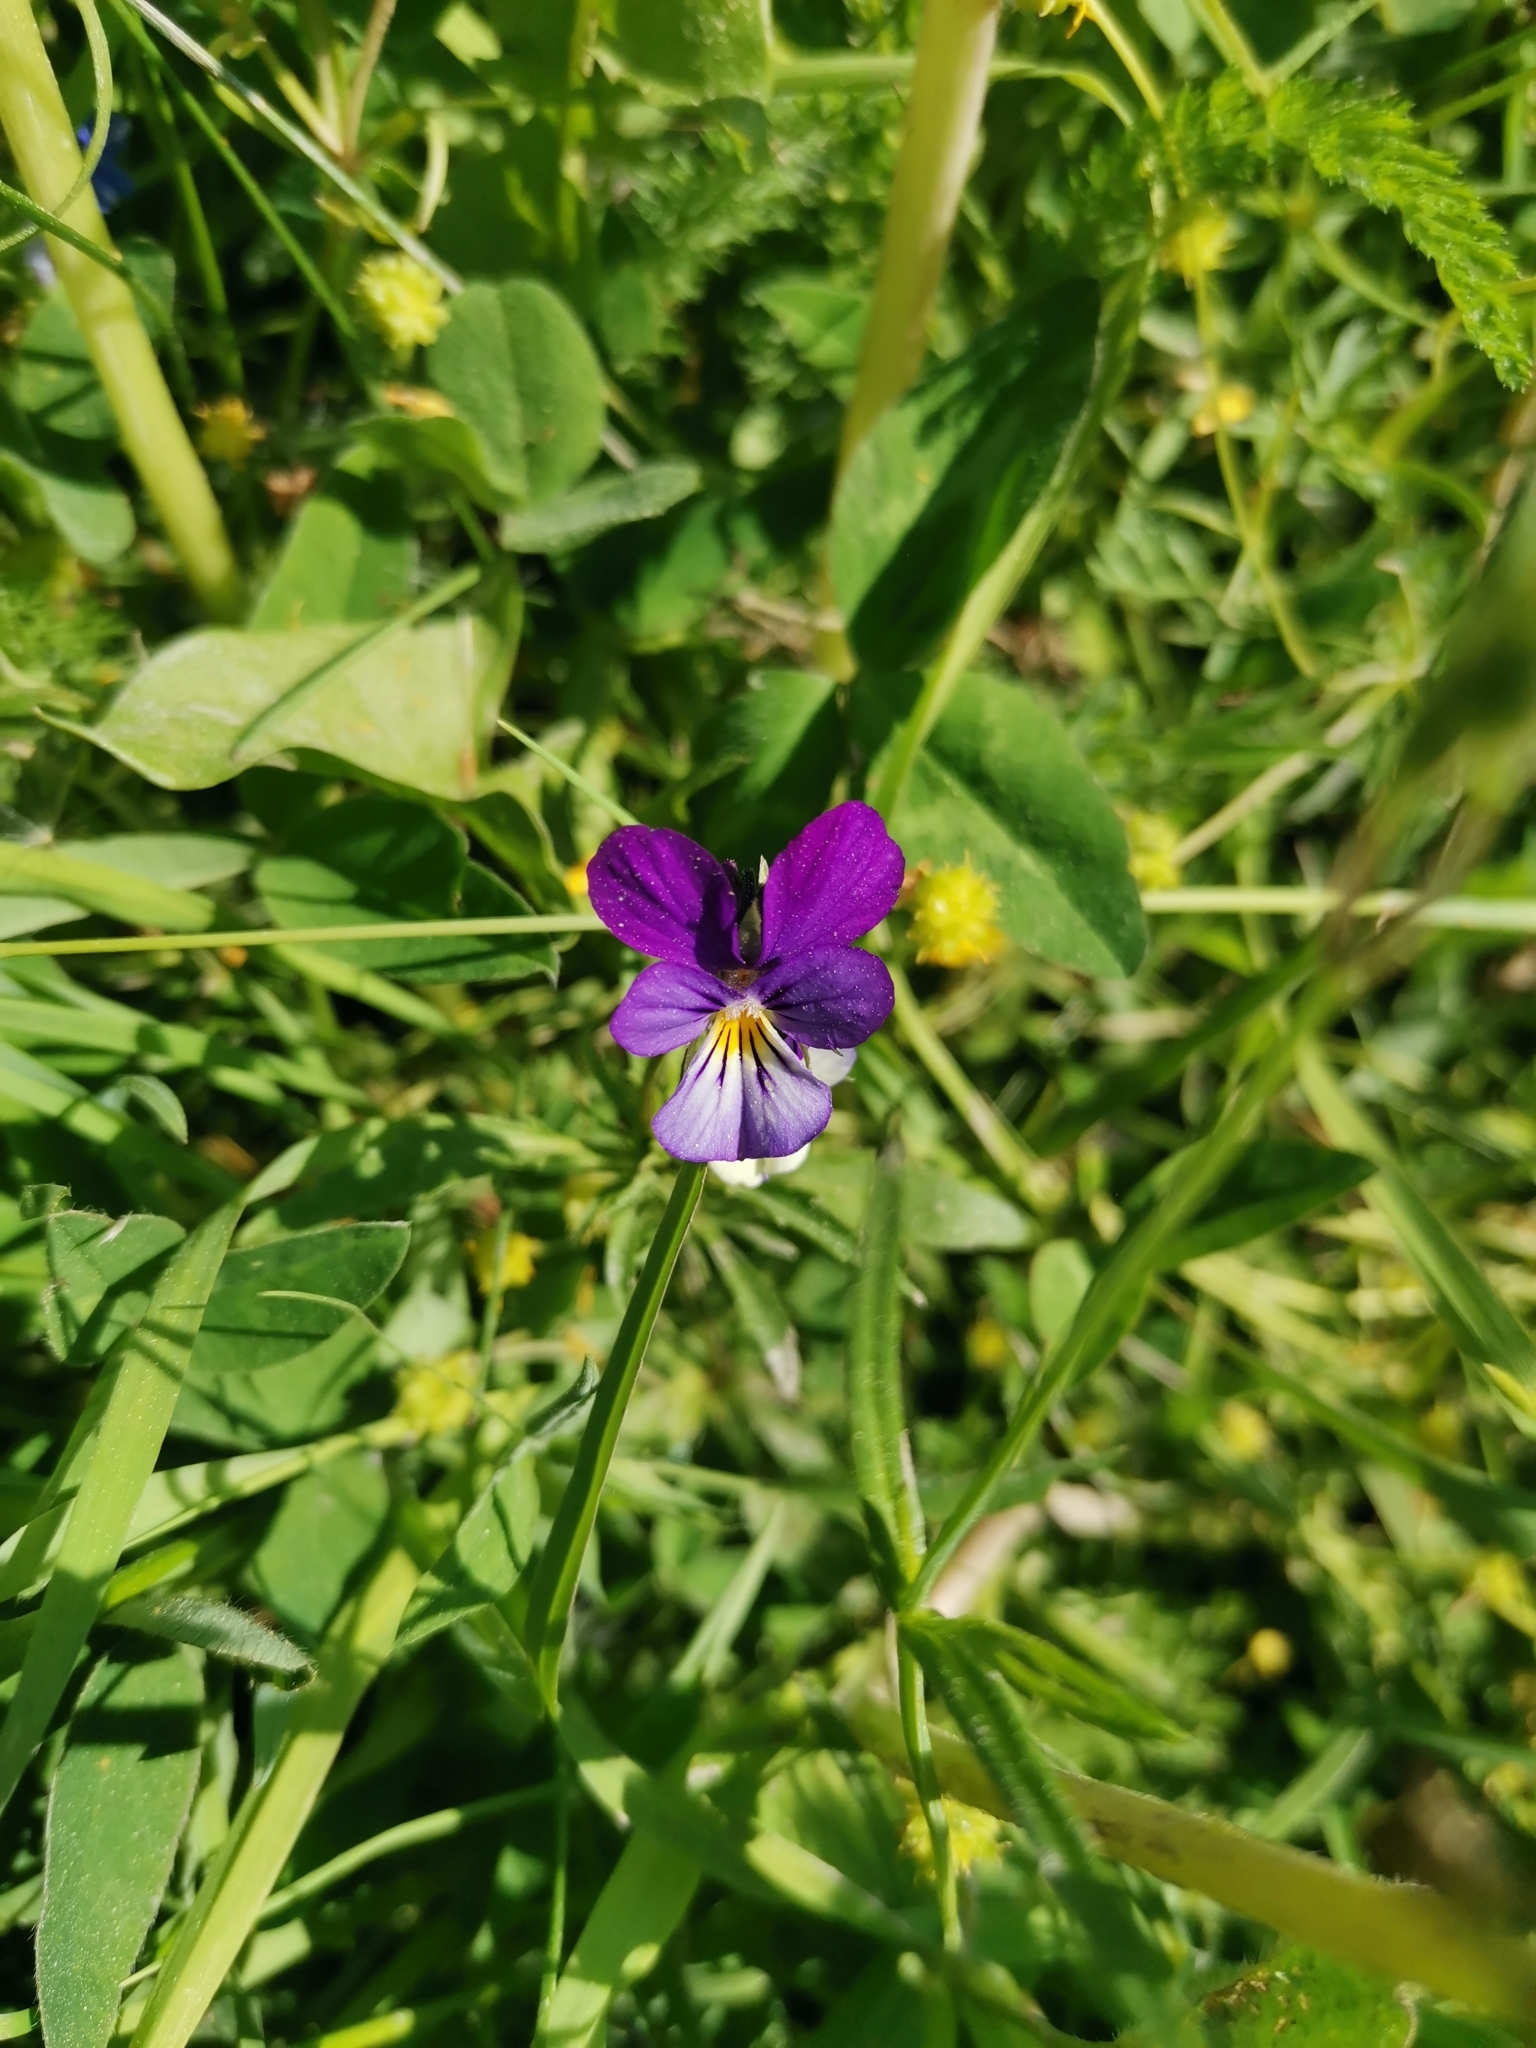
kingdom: Plantae
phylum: Tracheophyta
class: Magnoliopsida
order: Malpighiales
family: Violaceae
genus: Viola
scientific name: Viola tricolor
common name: Pansy
